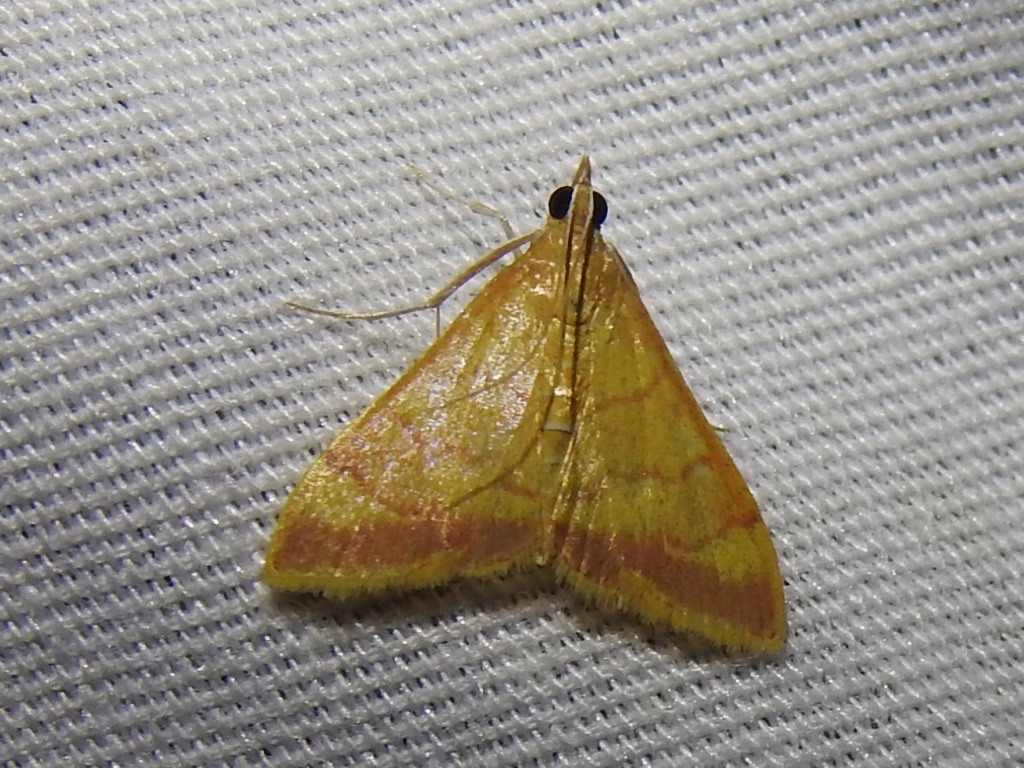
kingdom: Animalia
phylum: Arthropoda
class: Insecta
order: Lepidoptera
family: Crambidae
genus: Pyrausta
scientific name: Pyrausta pseudonythesalis
